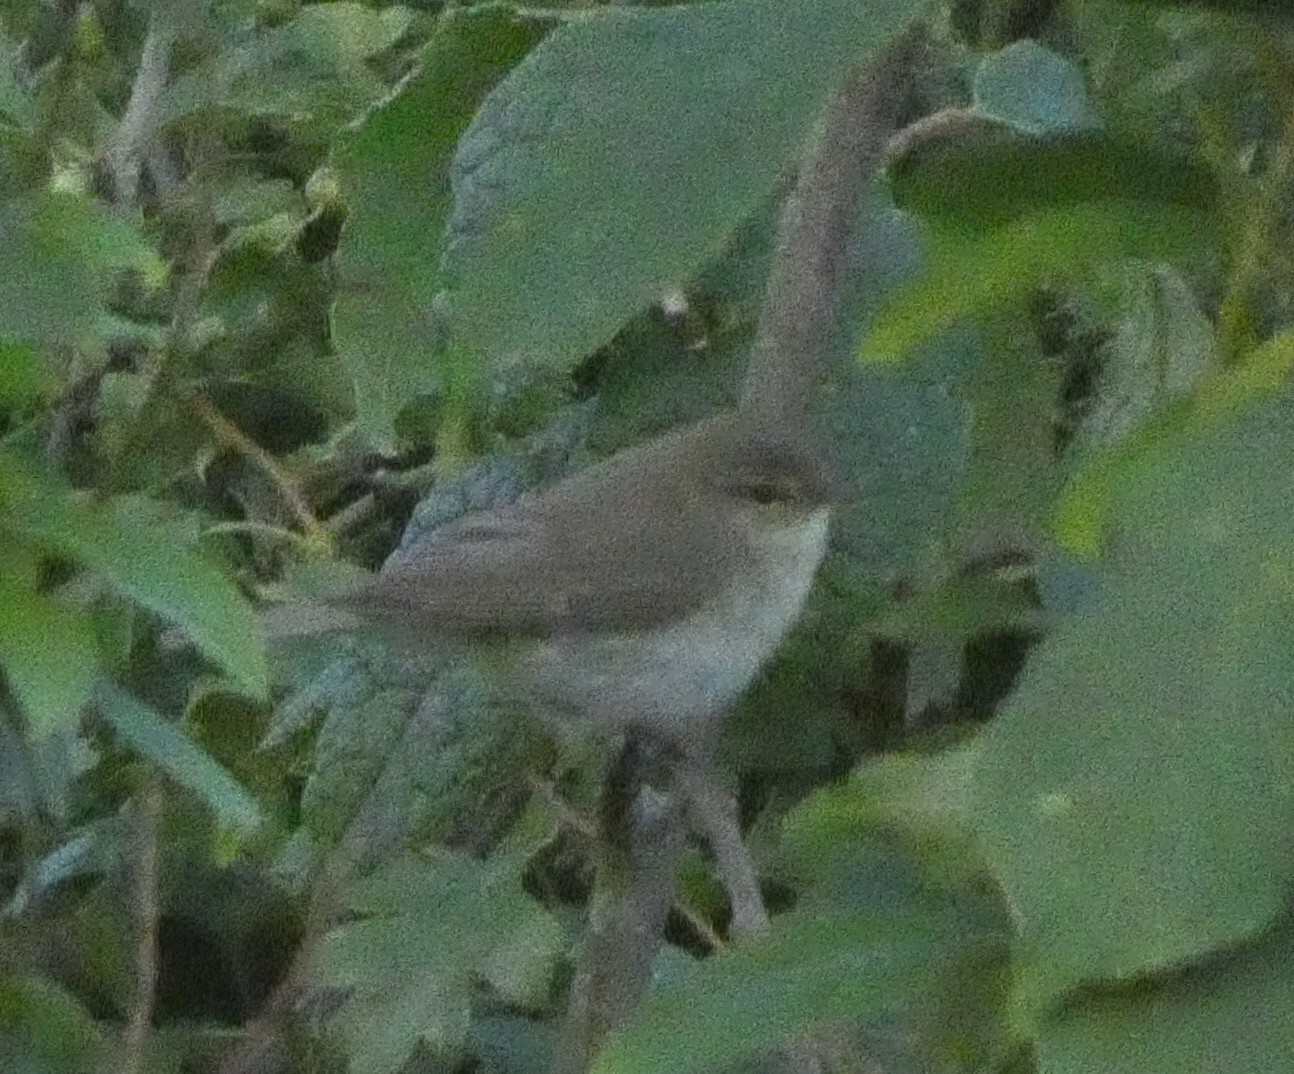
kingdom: Animalia
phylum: Chordata
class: Aves
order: Passeriformes
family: Phylloscopidae
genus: Phylloscopus
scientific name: Phylloscopus collybita
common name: Common chiffchaff
